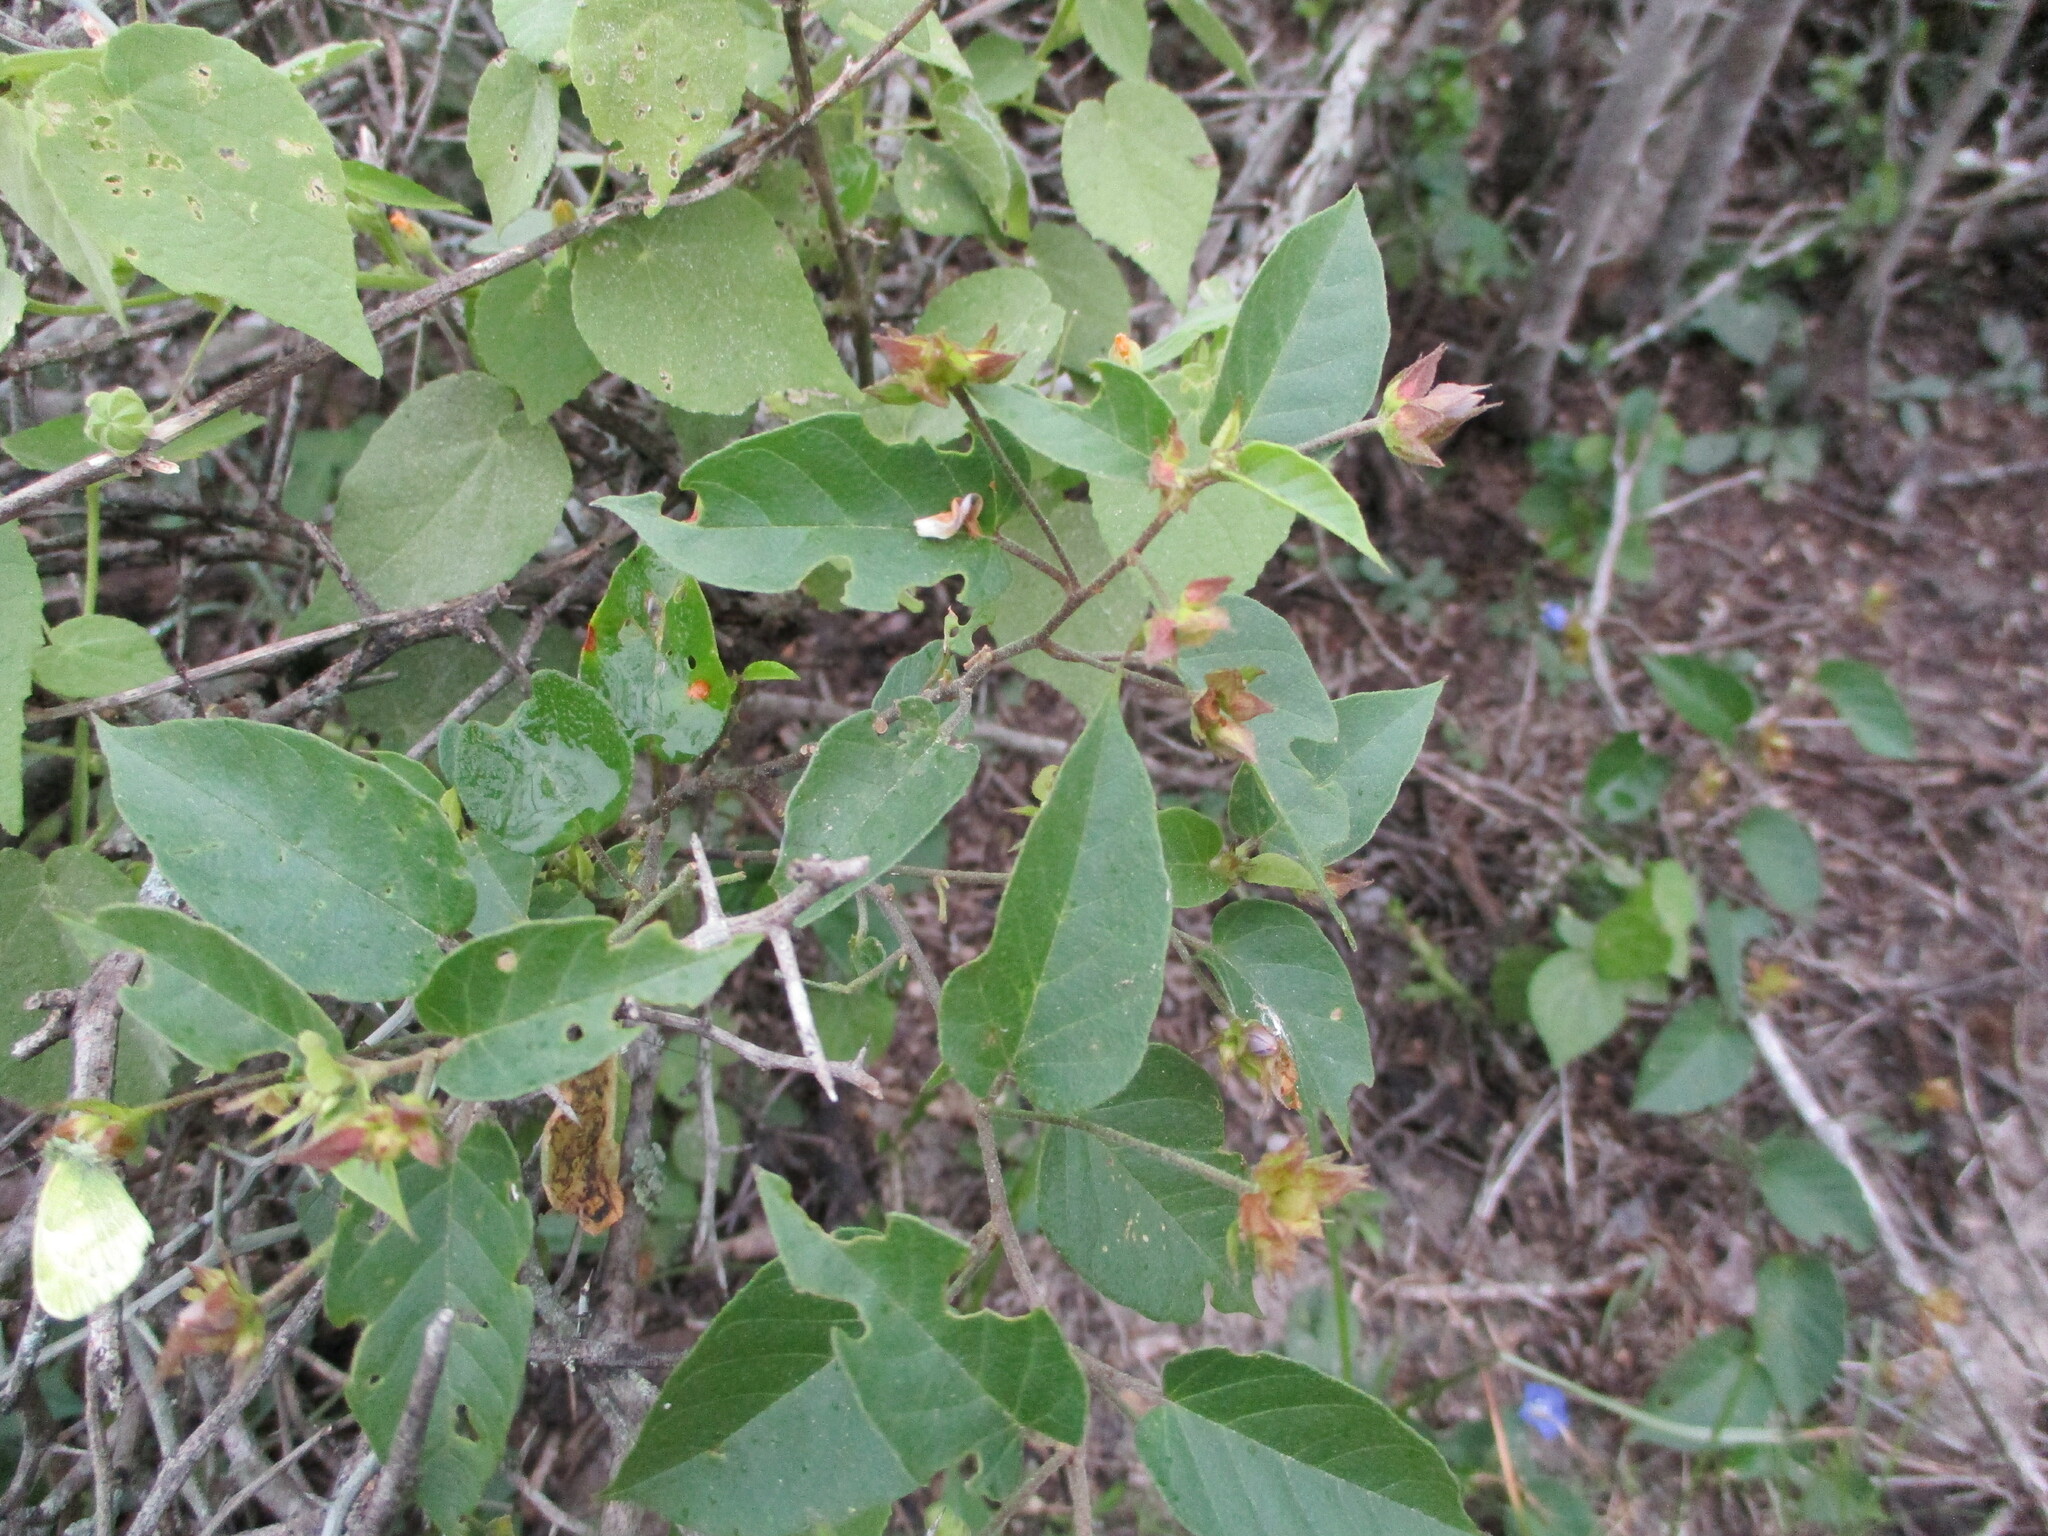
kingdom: Plantae
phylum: Tracheophyta
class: Magnoliopsida
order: Solanales
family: Convolvulaceae
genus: Jacquemontia
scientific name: Jacquemontia pentanthos
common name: Skyblue clustervine
